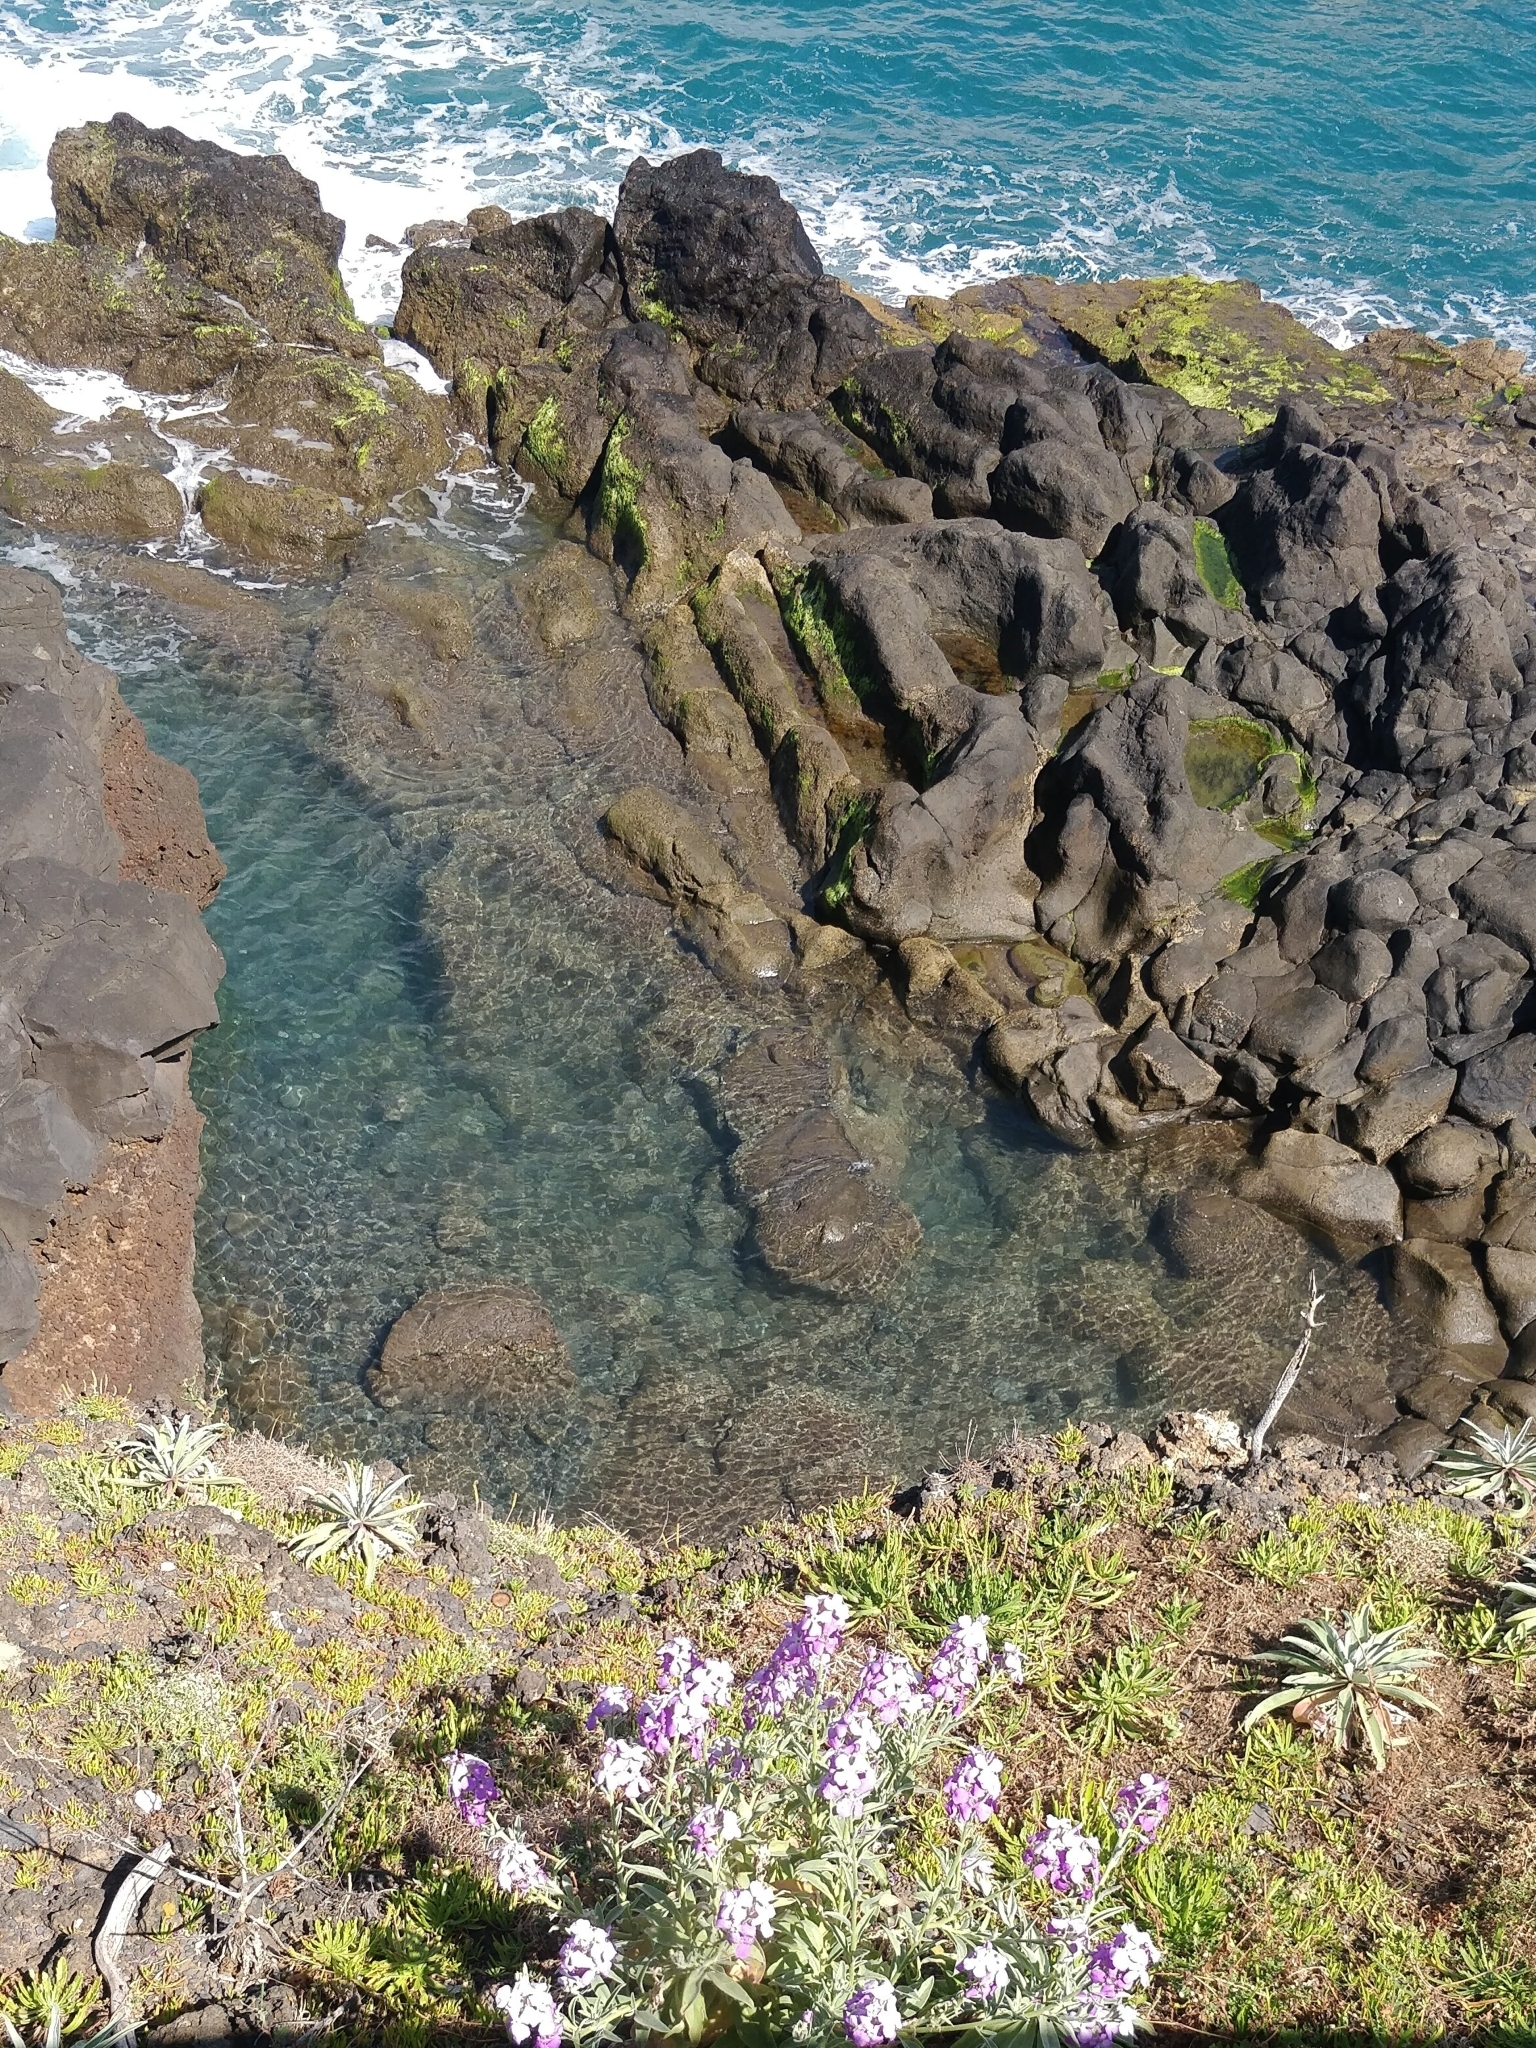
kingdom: Plantae
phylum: Tracheophyta
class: Magnoliopsida
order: Brassicales
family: Brassicaceae
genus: Matthiola
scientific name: Matthiola maderensis
